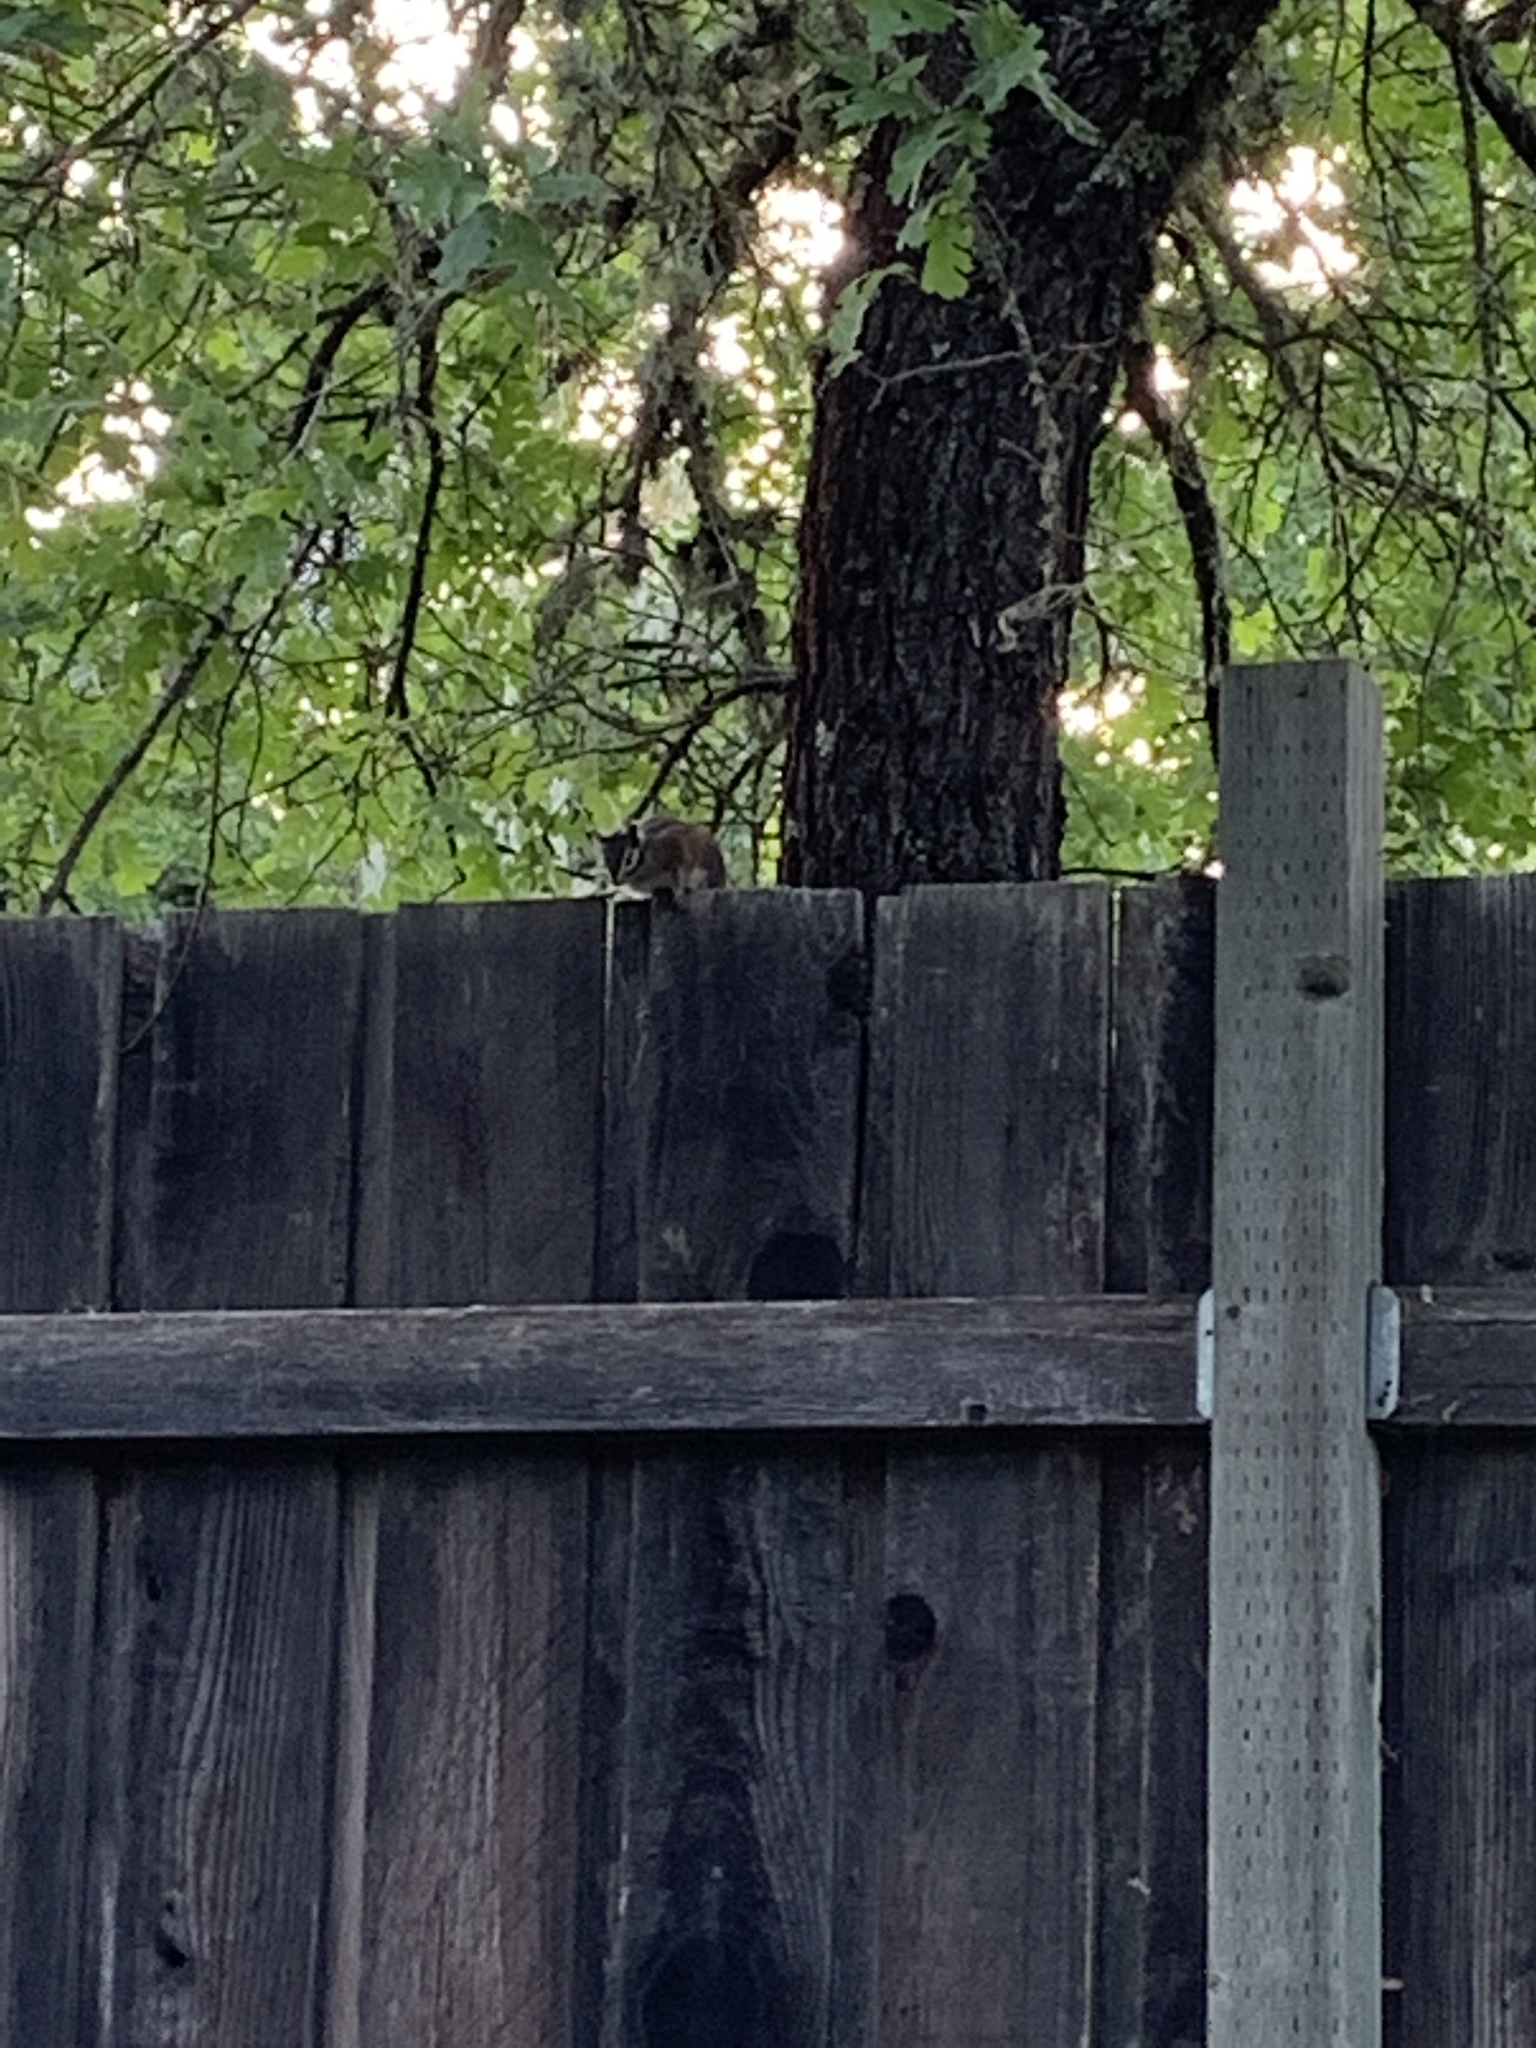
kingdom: Animalia
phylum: Chordata
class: Mammalia
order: Rodentia
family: Sciuridae
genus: Tamias
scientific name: Tamias sonomae
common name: Sonoma chipmunk
